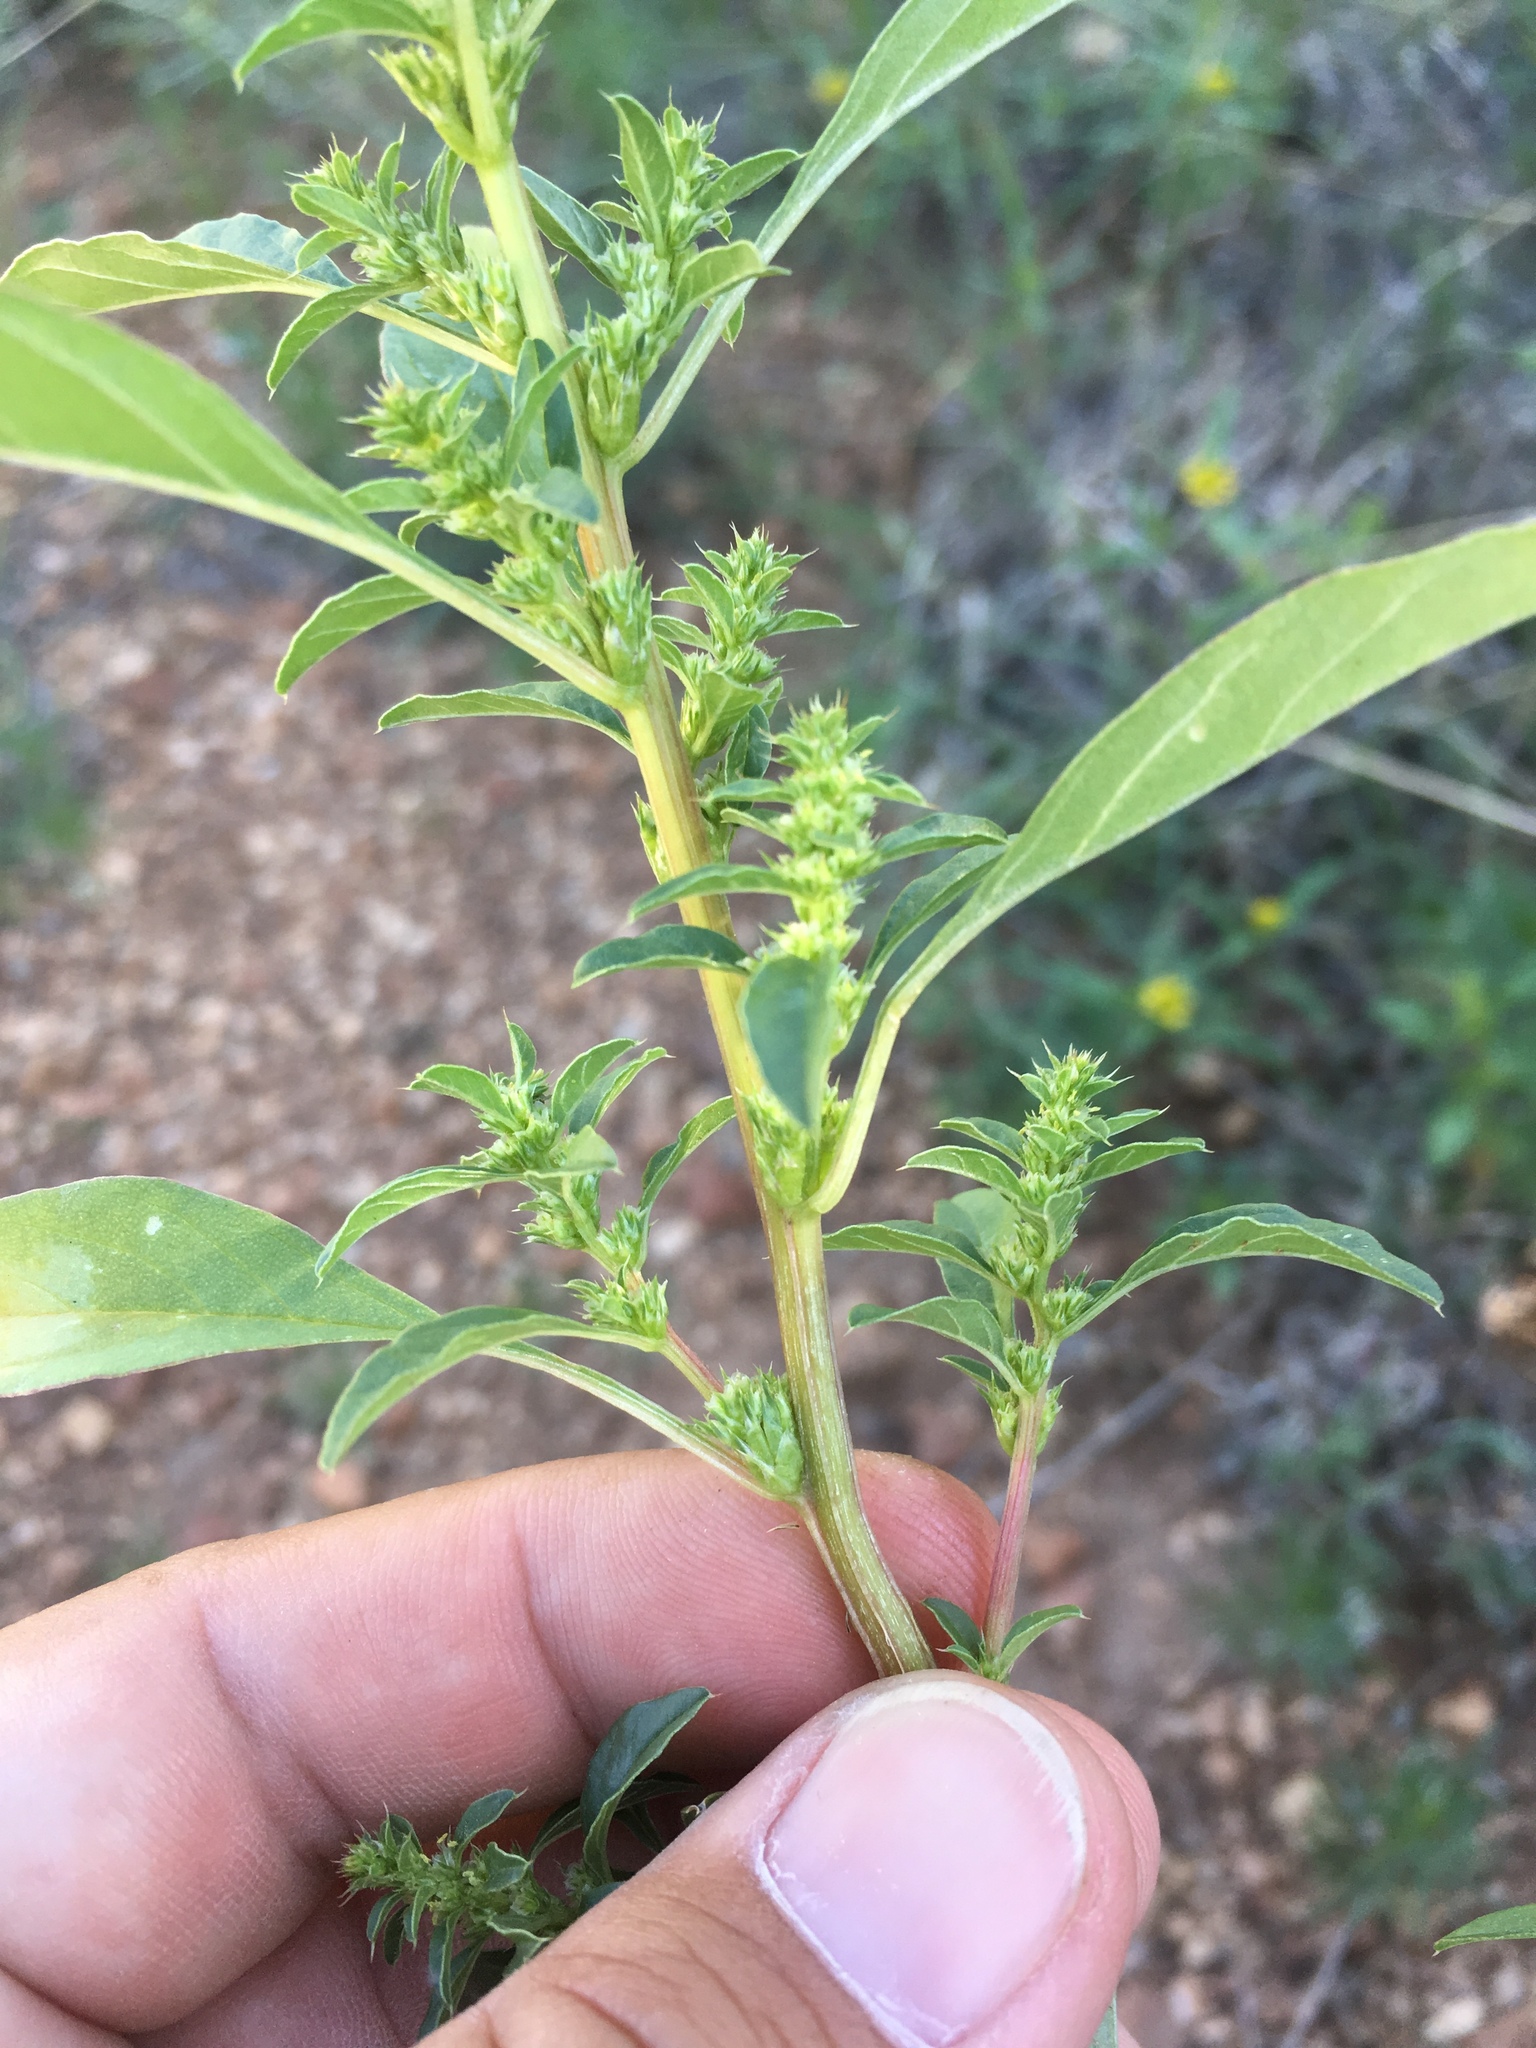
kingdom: Plantae
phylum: Tracheophyta
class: Magnoliopsida
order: Caryophyllales
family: Amaranthaceae
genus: Amaranthus
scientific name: Amaranthus torreyi
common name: Bigelow's amaranth
